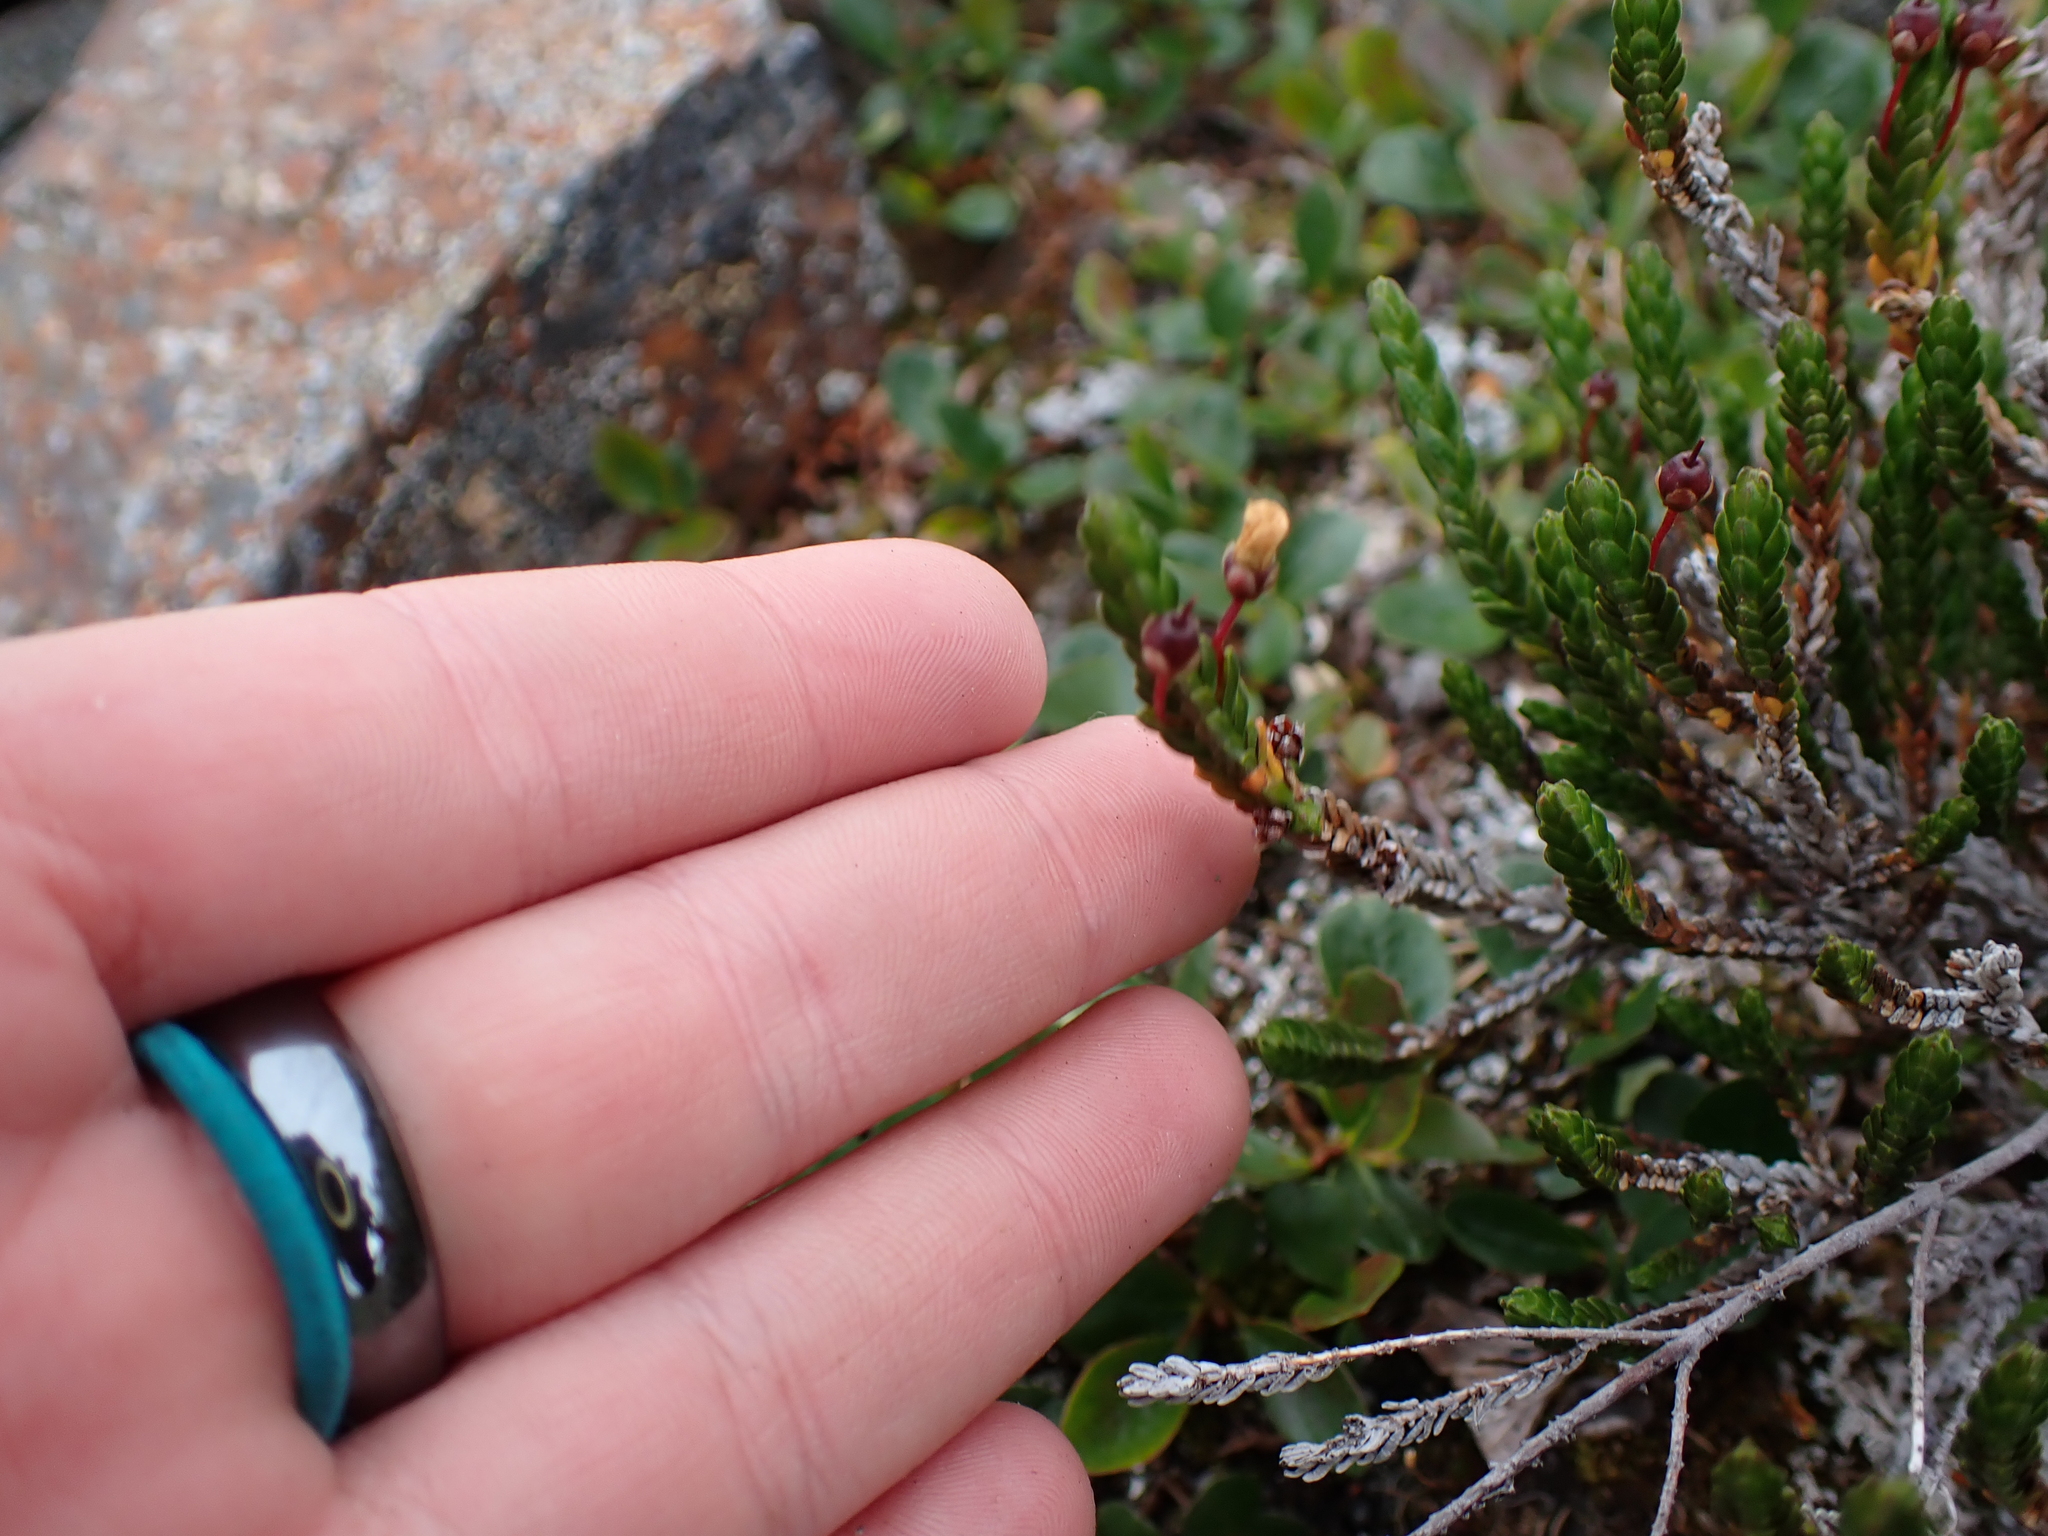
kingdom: Plantae
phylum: Tracheophyta
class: Magnoliopsida
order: Ericales
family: Ericaceae
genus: Cassiope
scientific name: Cassiope tetragona
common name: Arctic bell heather
